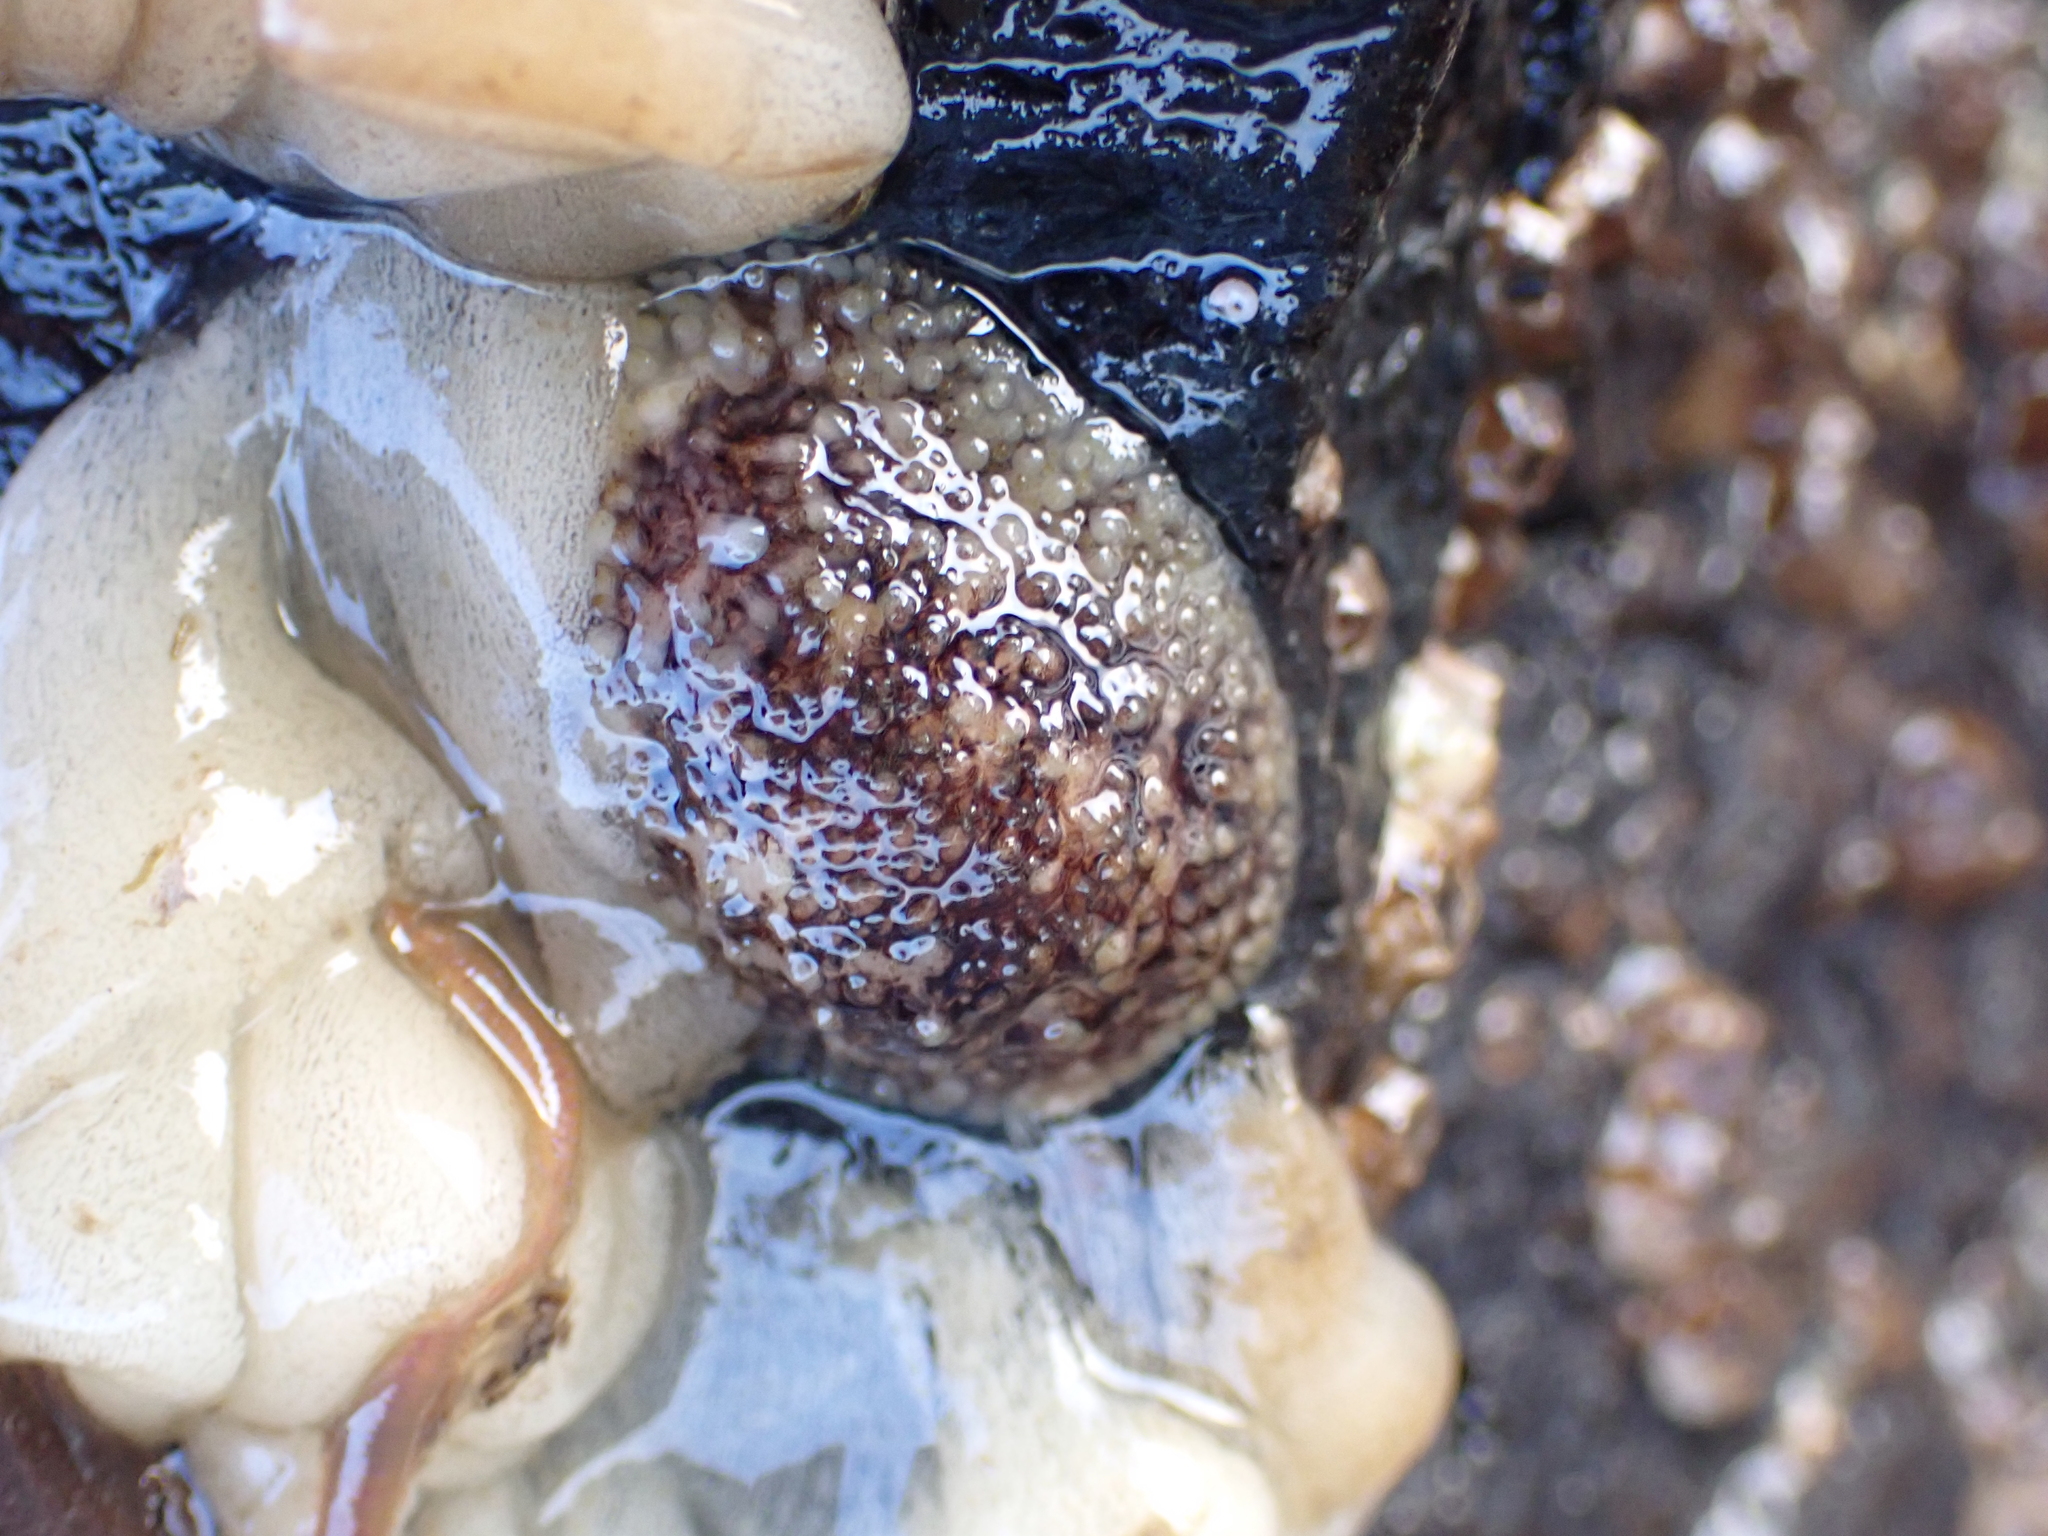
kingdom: Animalia
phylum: Mollusca
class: Gastropoda
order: Nudibranchia
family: Onchidorididae
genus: Onchidoris
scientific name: Onchidoris bilamellata
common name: Barnacle-eating onchidoris
